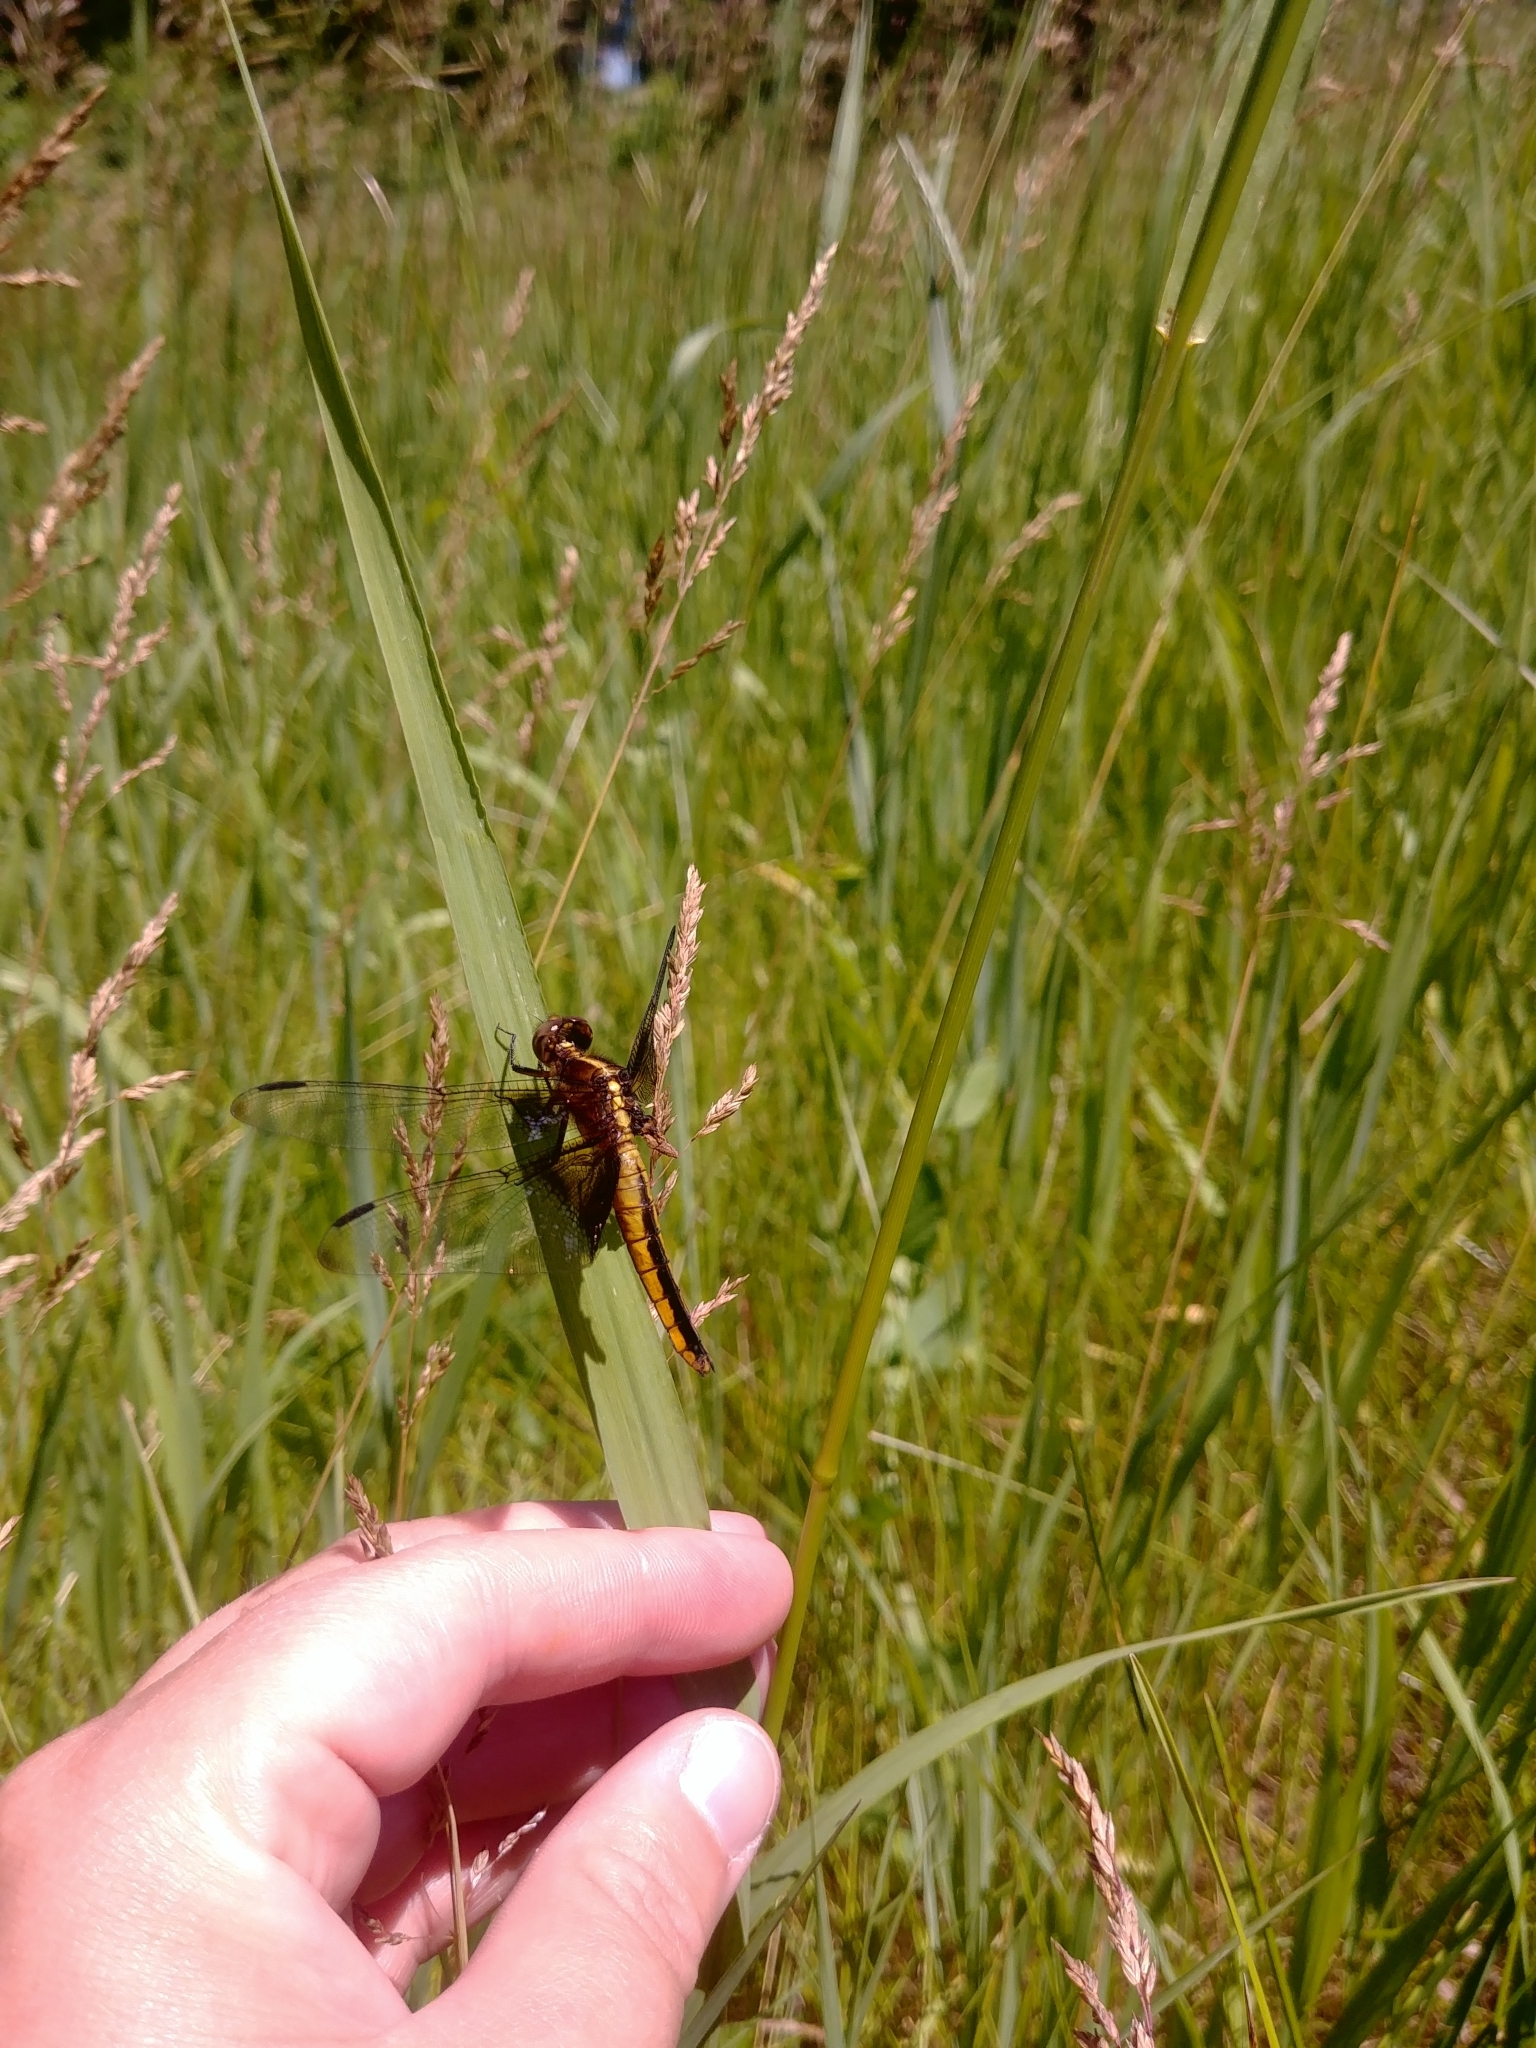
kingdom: Animalia
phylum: Arthropoda
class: Insecta
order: Odonata
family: Libellulidae
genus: Libellula
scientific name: Libellula luctuosa
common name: Widow skimmer
